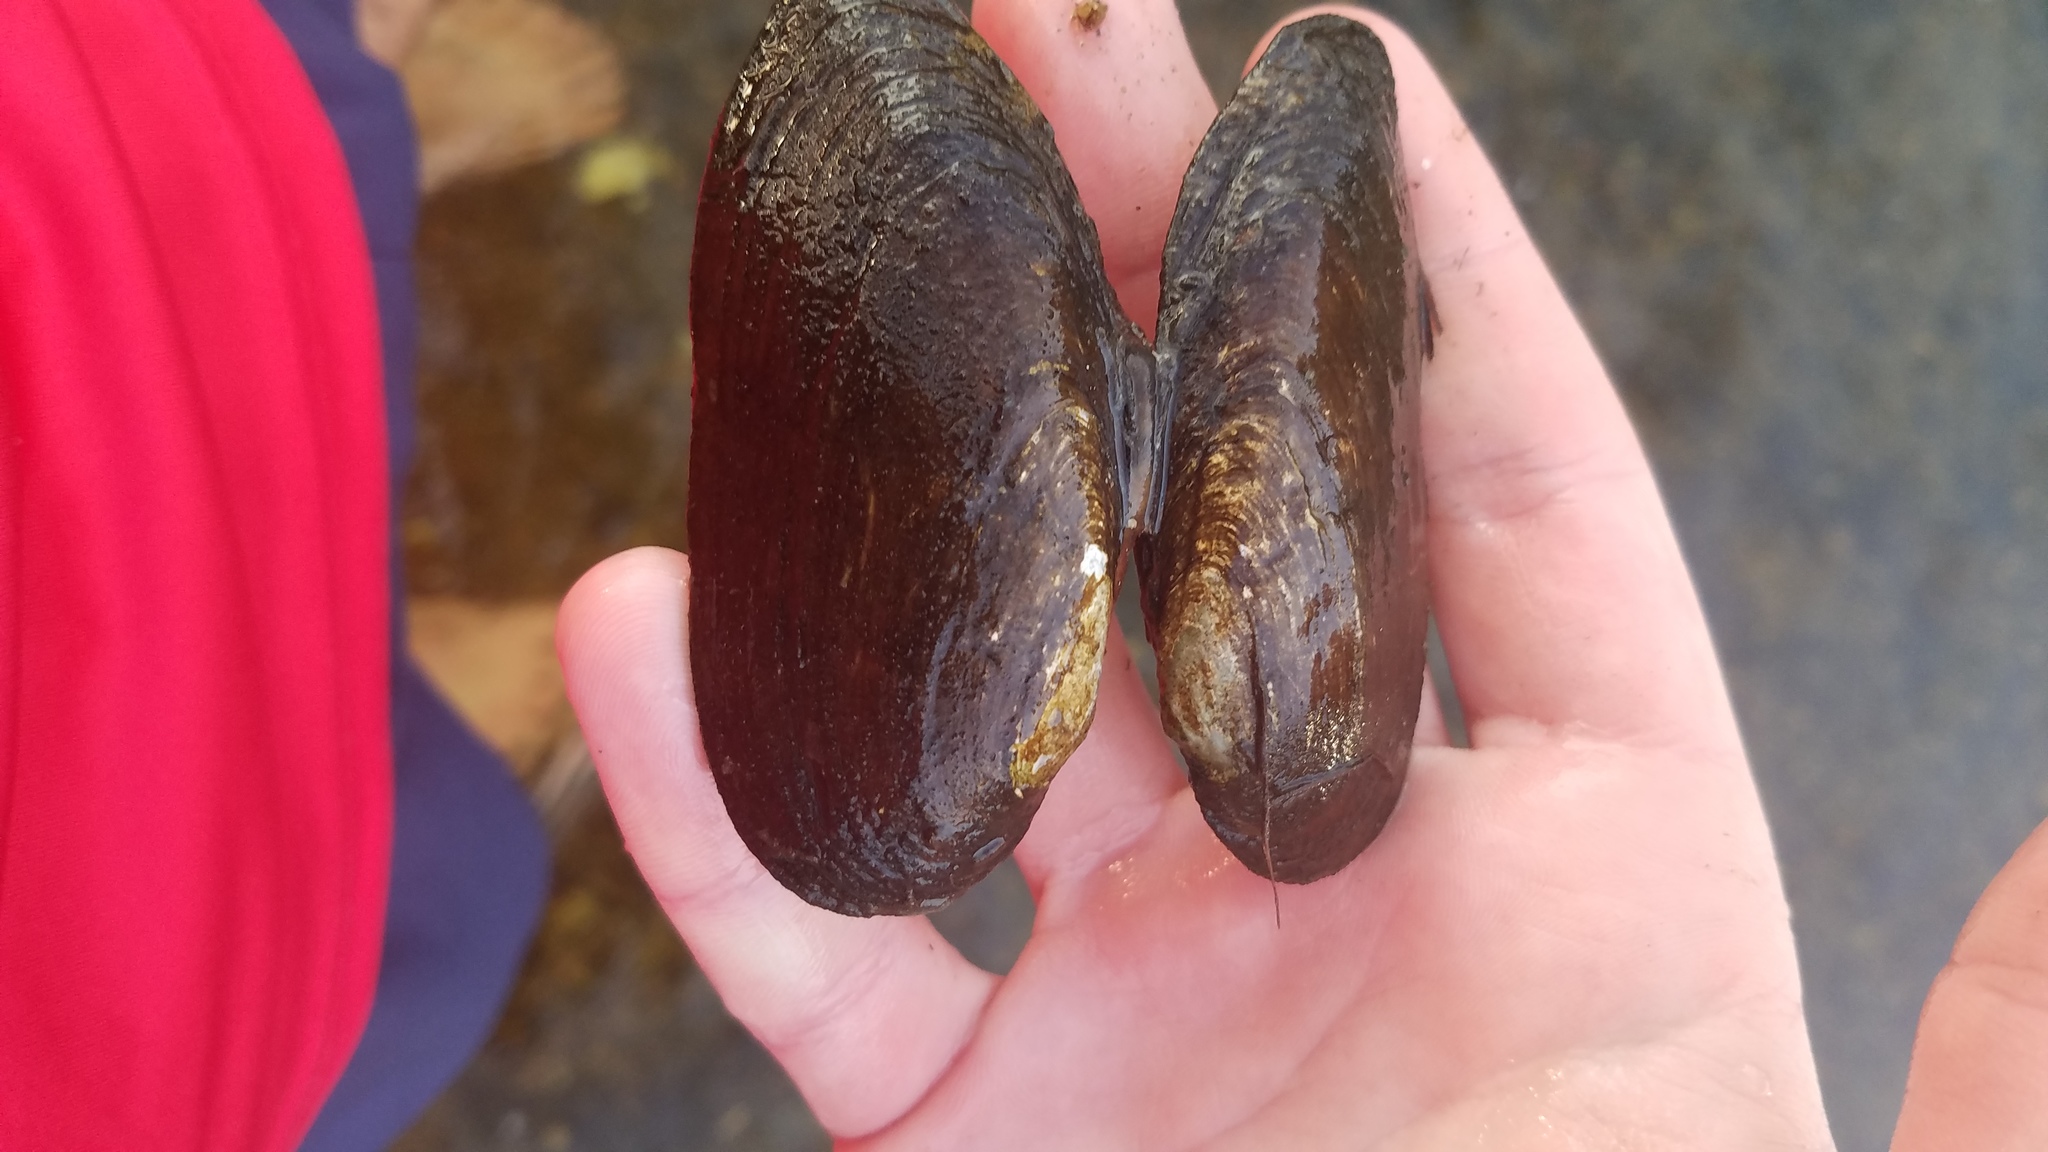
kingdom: Animalia
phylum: Mollusca
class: Bivalvia
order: Unionida
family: Unionidae
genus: Eurynia
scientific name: Eurynia dilatata
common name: Spike
